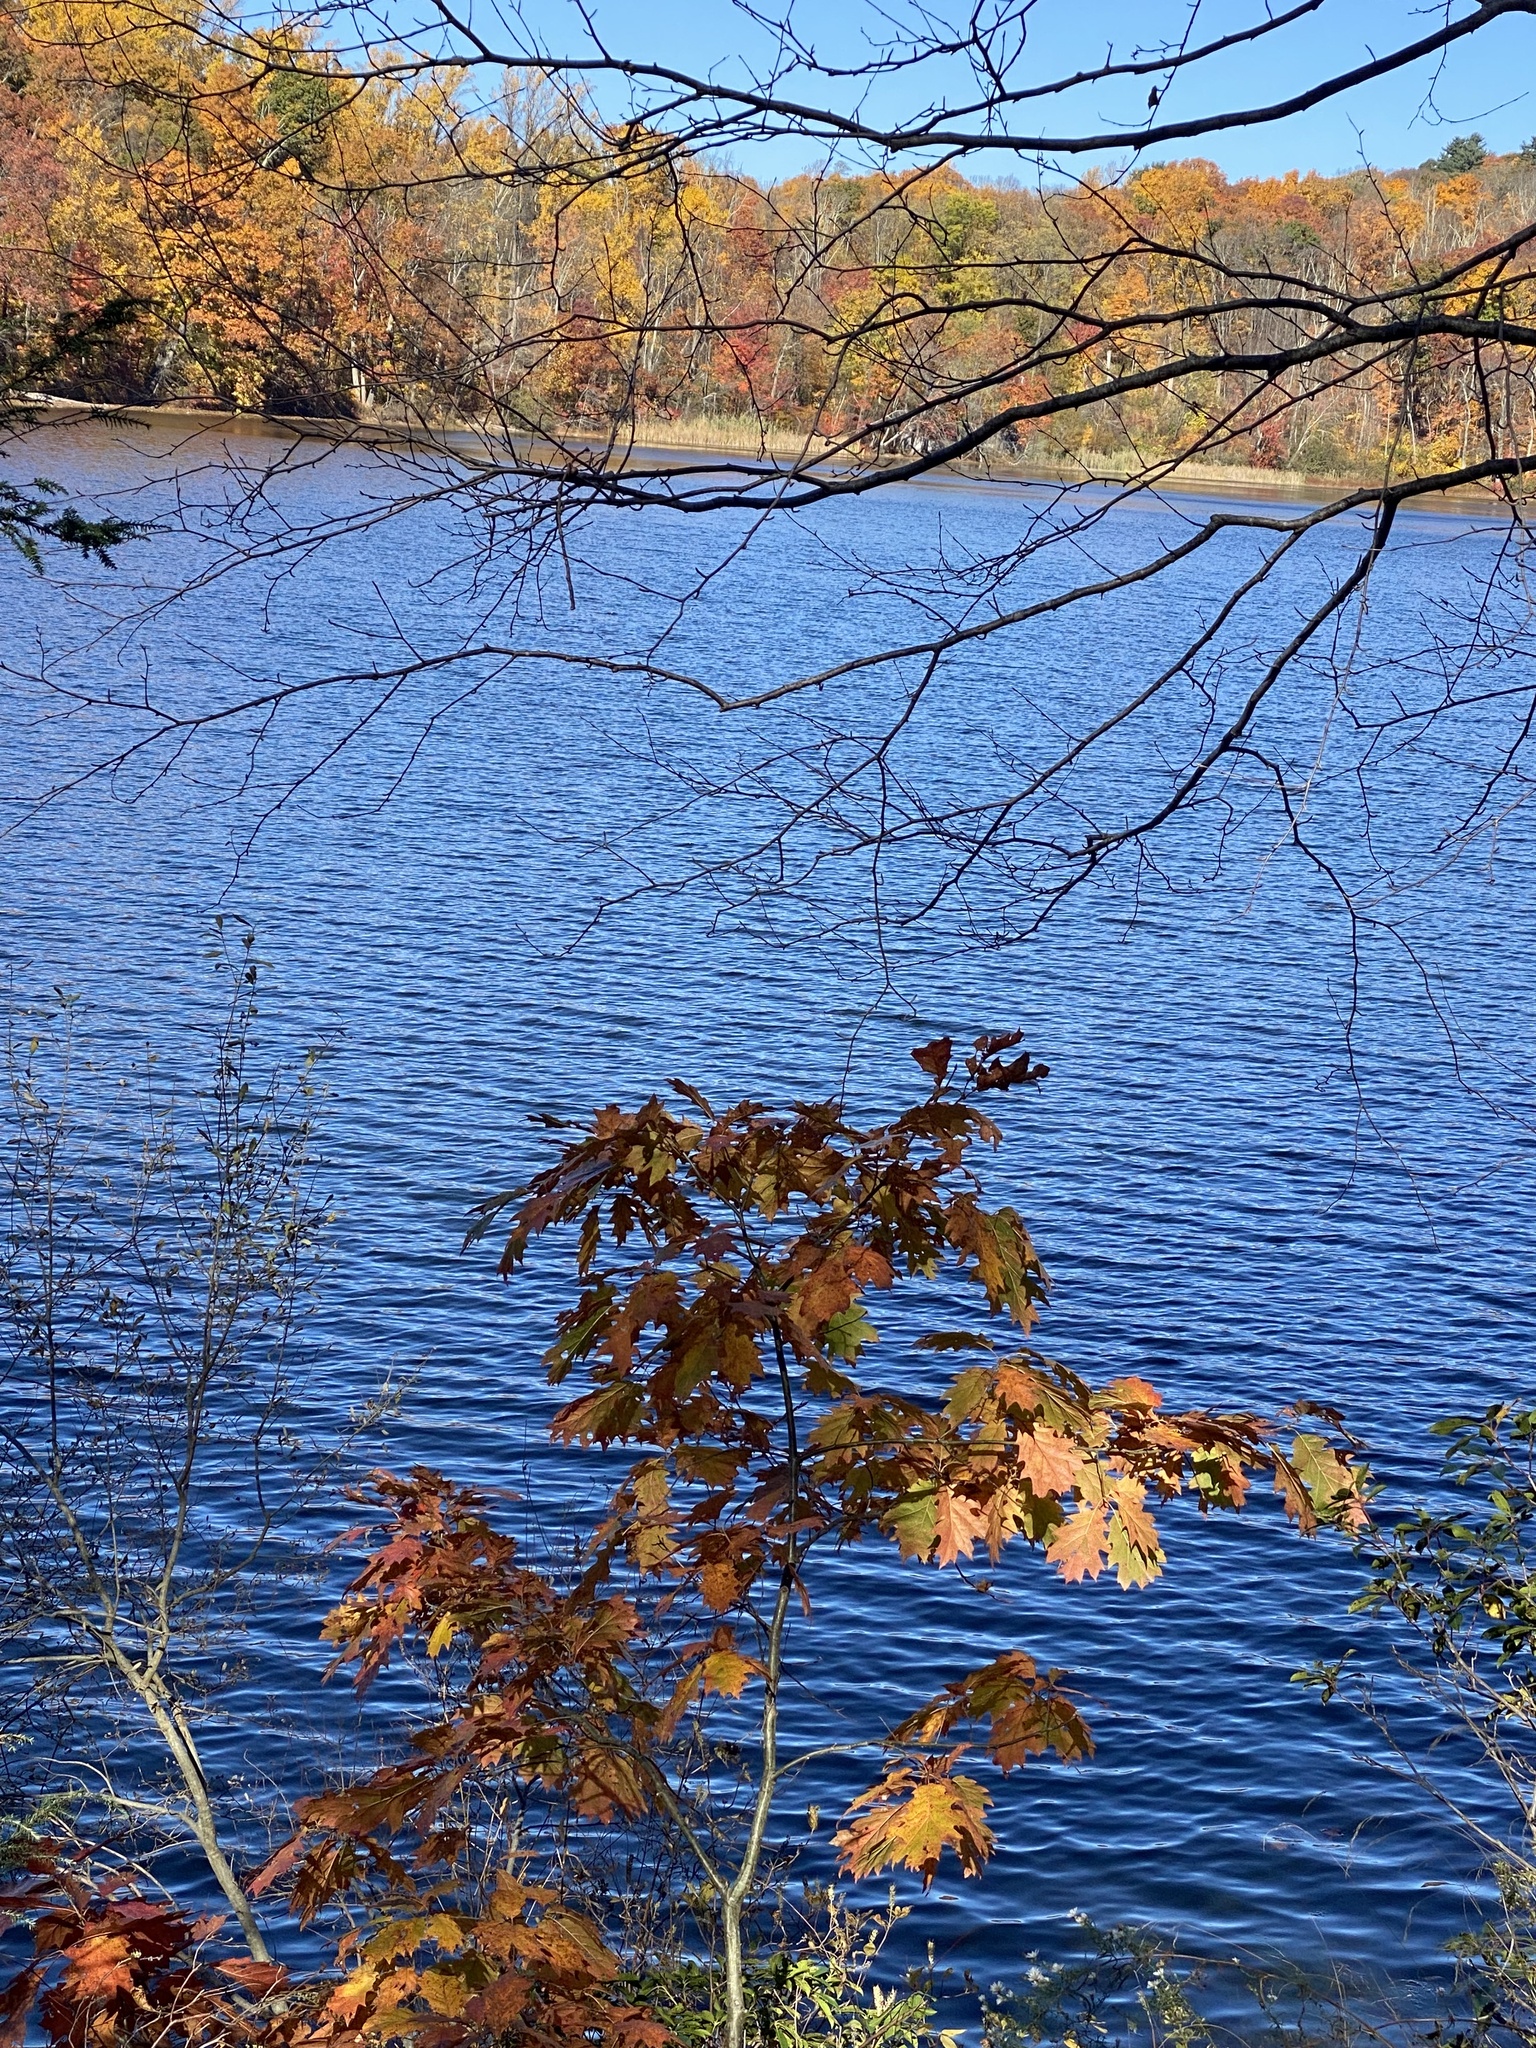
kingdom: Plantae
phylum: Tracheophyta
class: Magnoliopsida
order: Fagales
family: Fagaceae
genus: Quercus
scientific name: Quercus rubra
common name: Red oak
